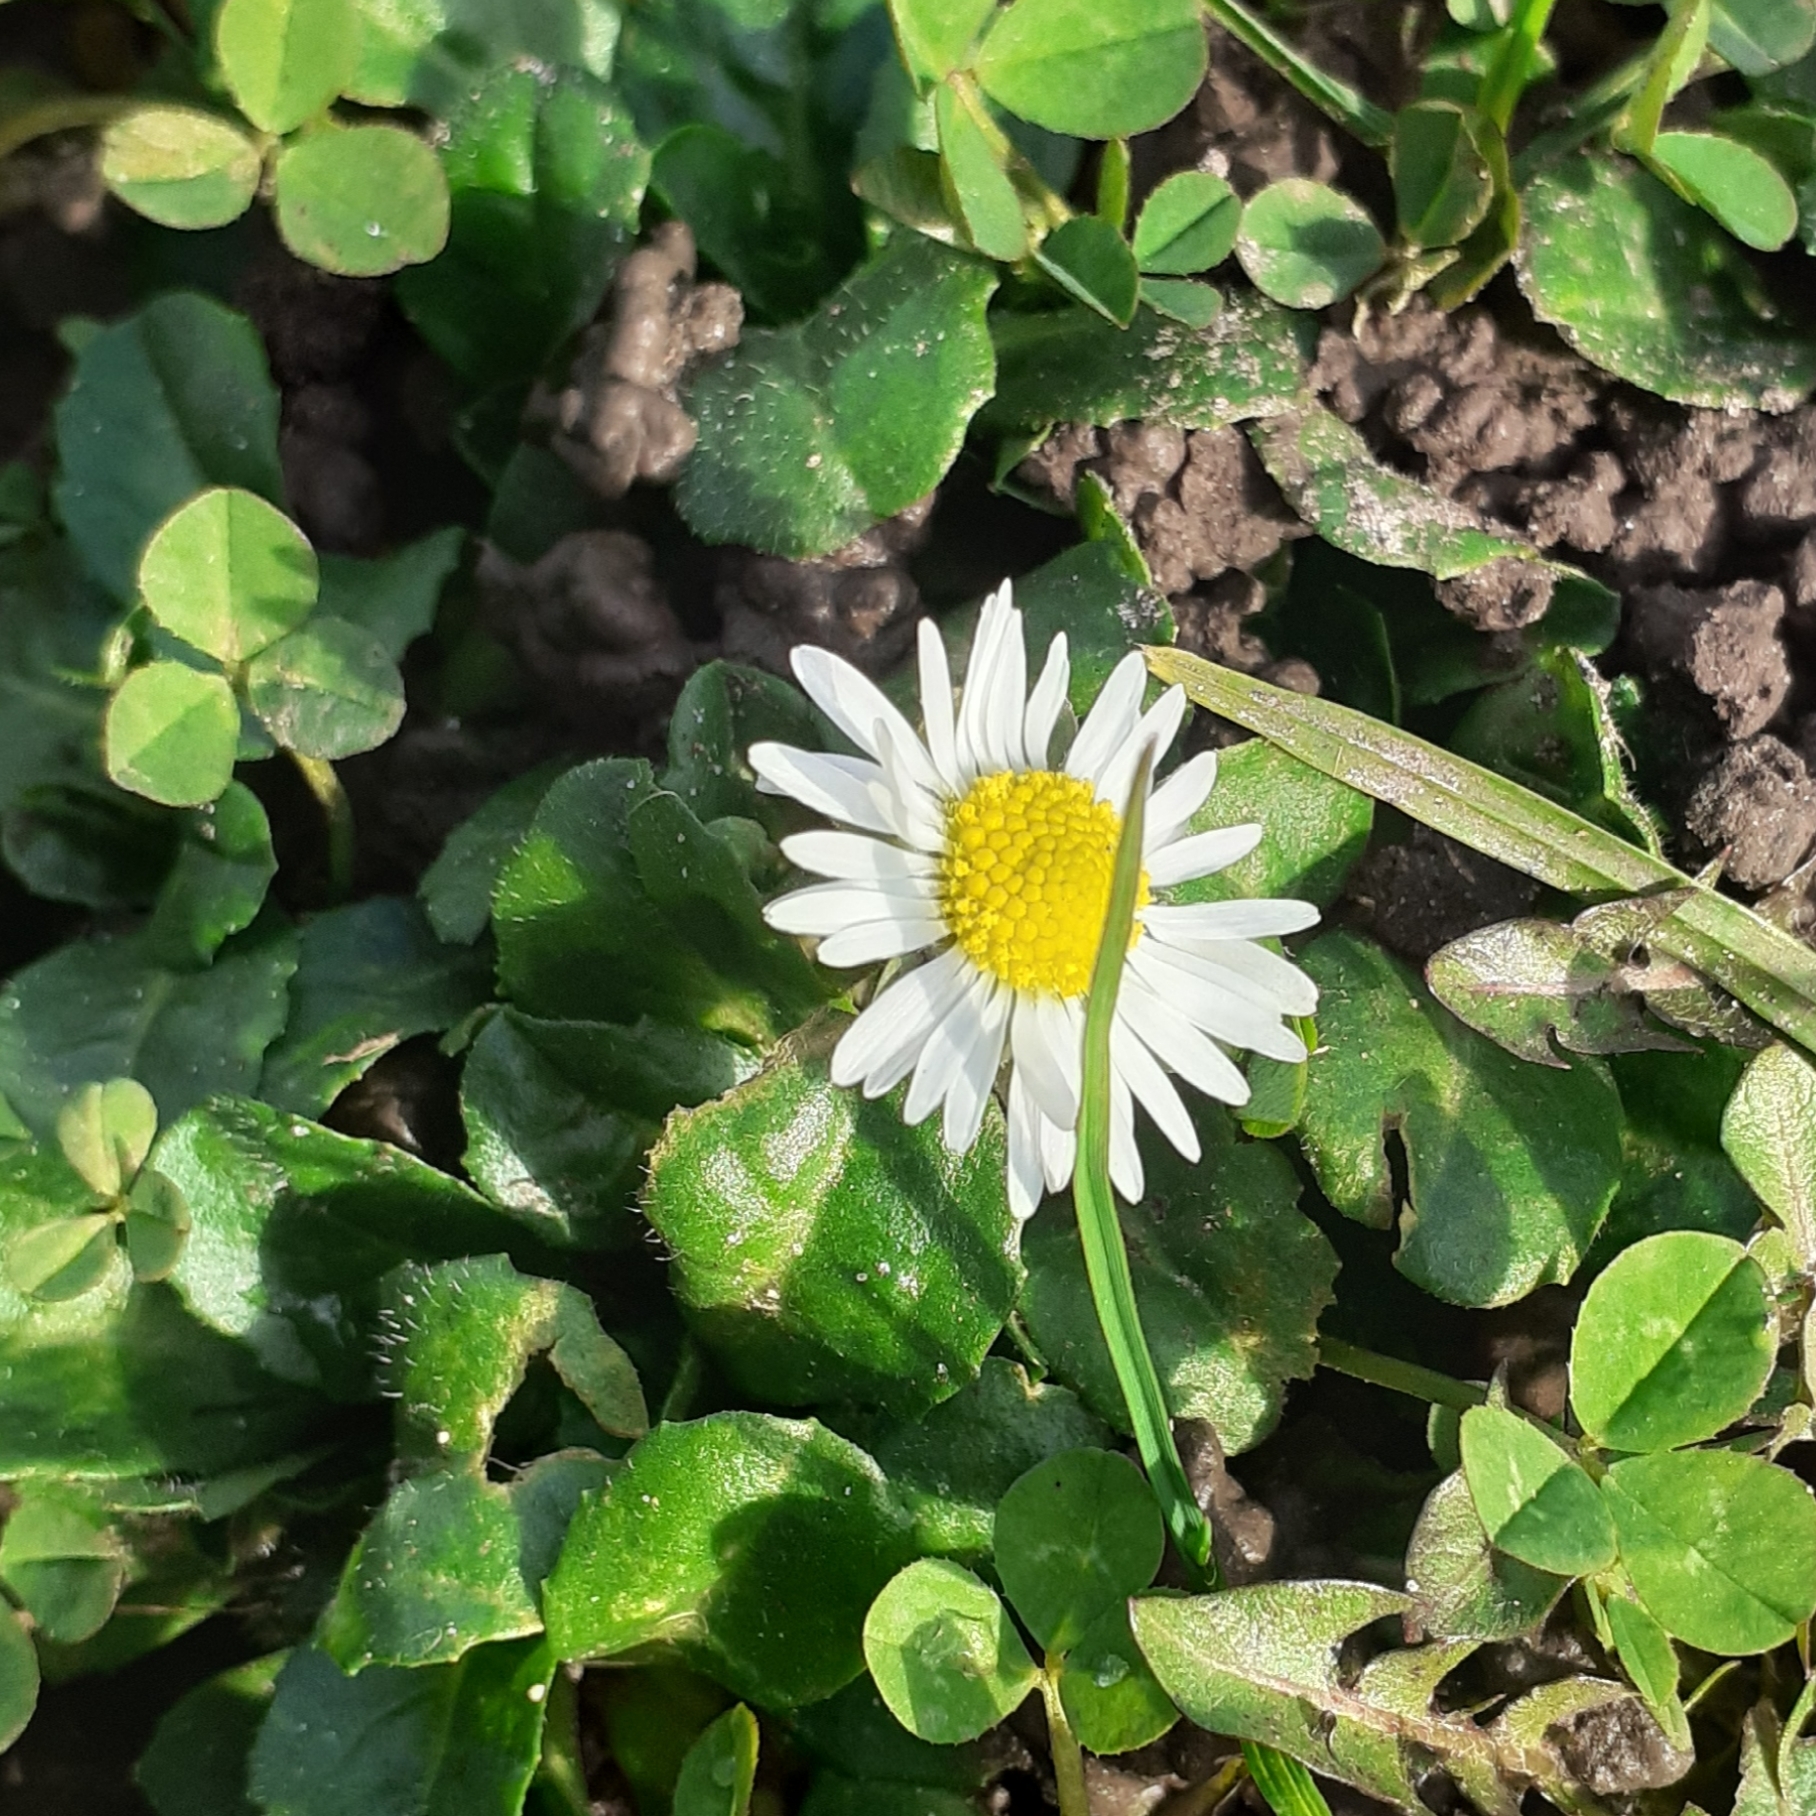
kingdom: Plantae
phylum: Tracheophyta
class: Magnoliopsida
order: Asterales
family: Asteraceae
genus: Bellis
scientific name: Bellis perennis
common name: Lawndaisy
